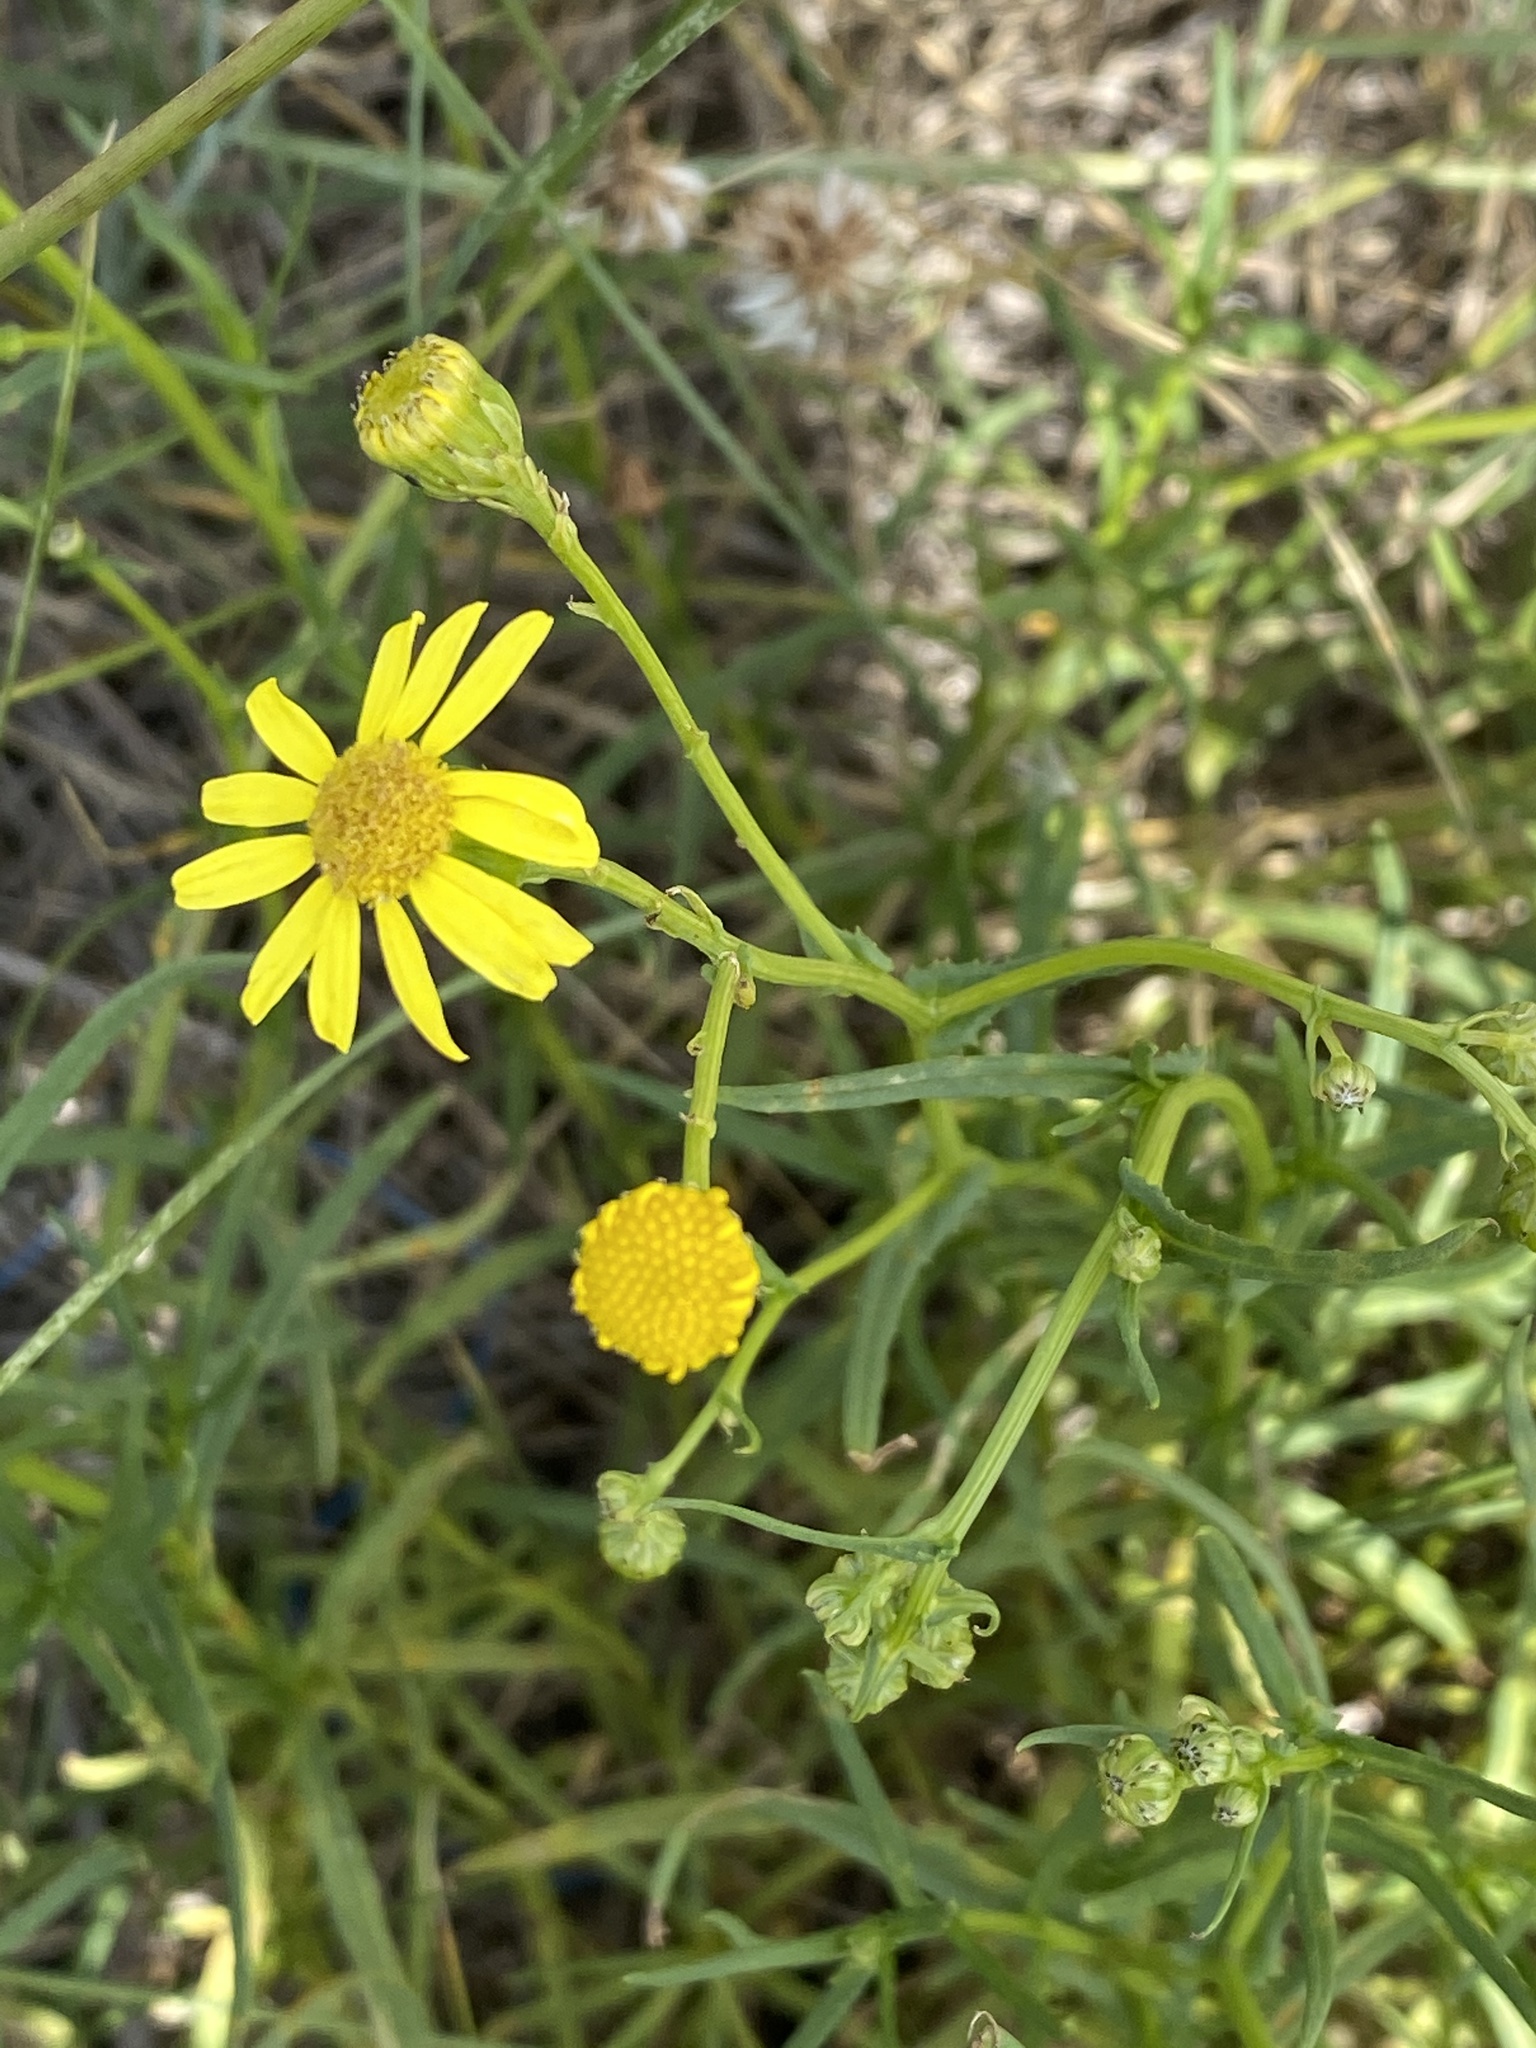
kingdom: Plantae
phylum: Tracheophyta
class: Magnoliopsida
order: Asterales
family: Asteraceae
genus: Senecio
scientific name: Senecio inaequidens
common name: Narrow-leaved ragwort
